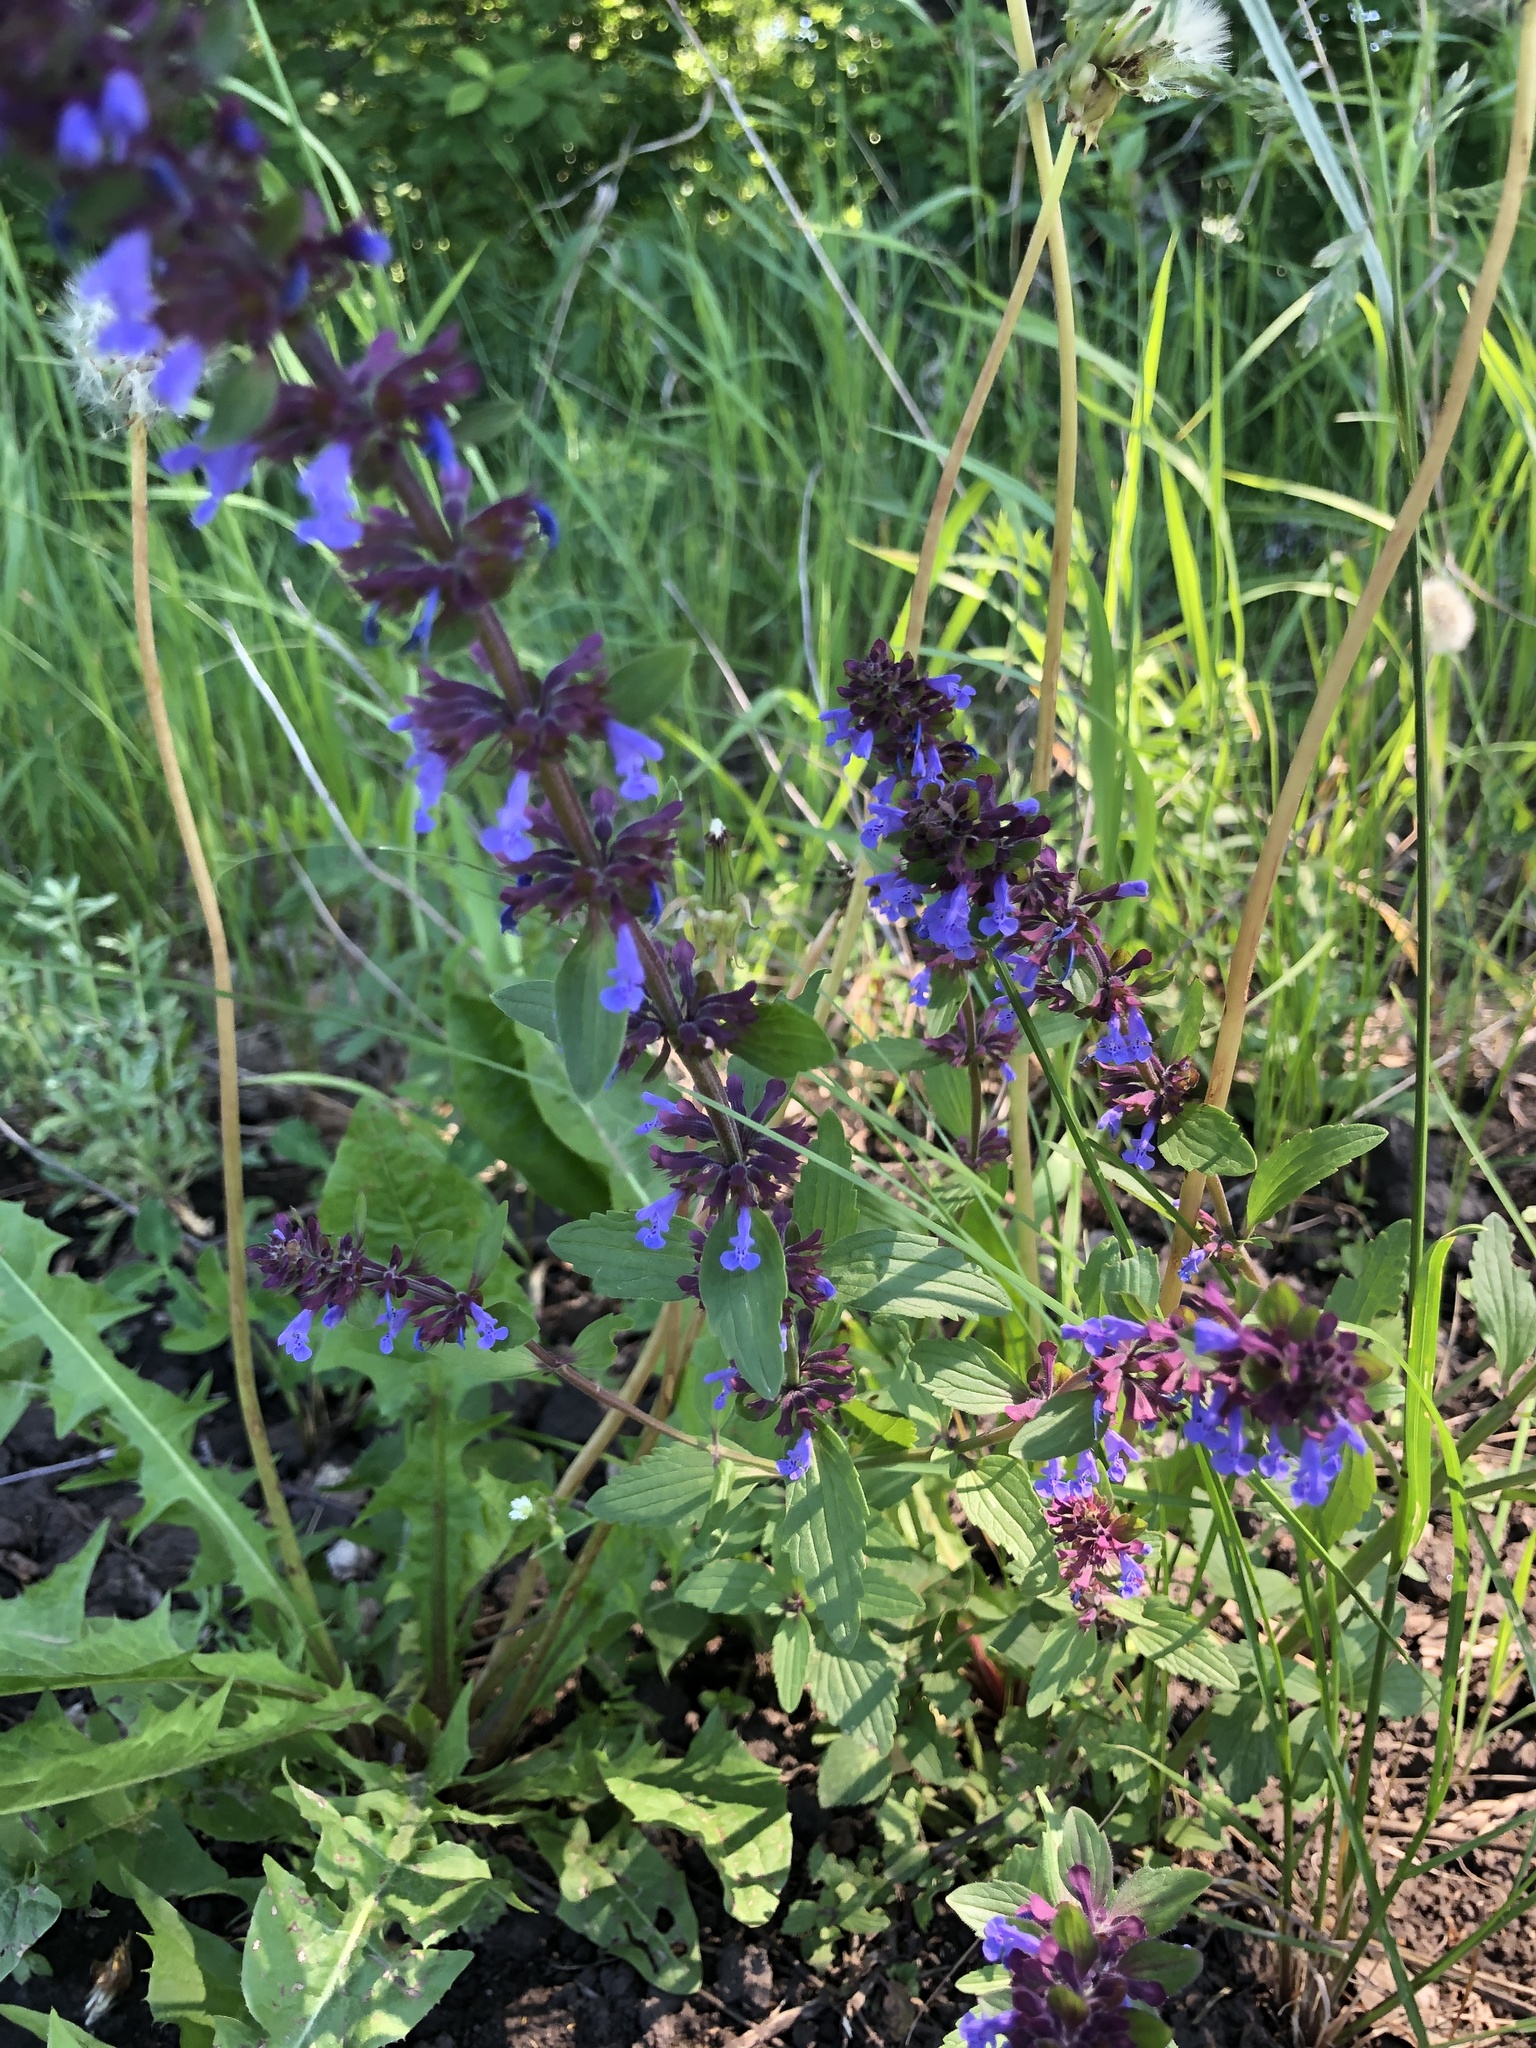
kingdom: Plantae
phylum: Tracheophyta
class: Magnoliopsida
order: Lamiales
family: Lamiaceae
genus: Dracocephalum
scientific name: Dracocephalum nutans
